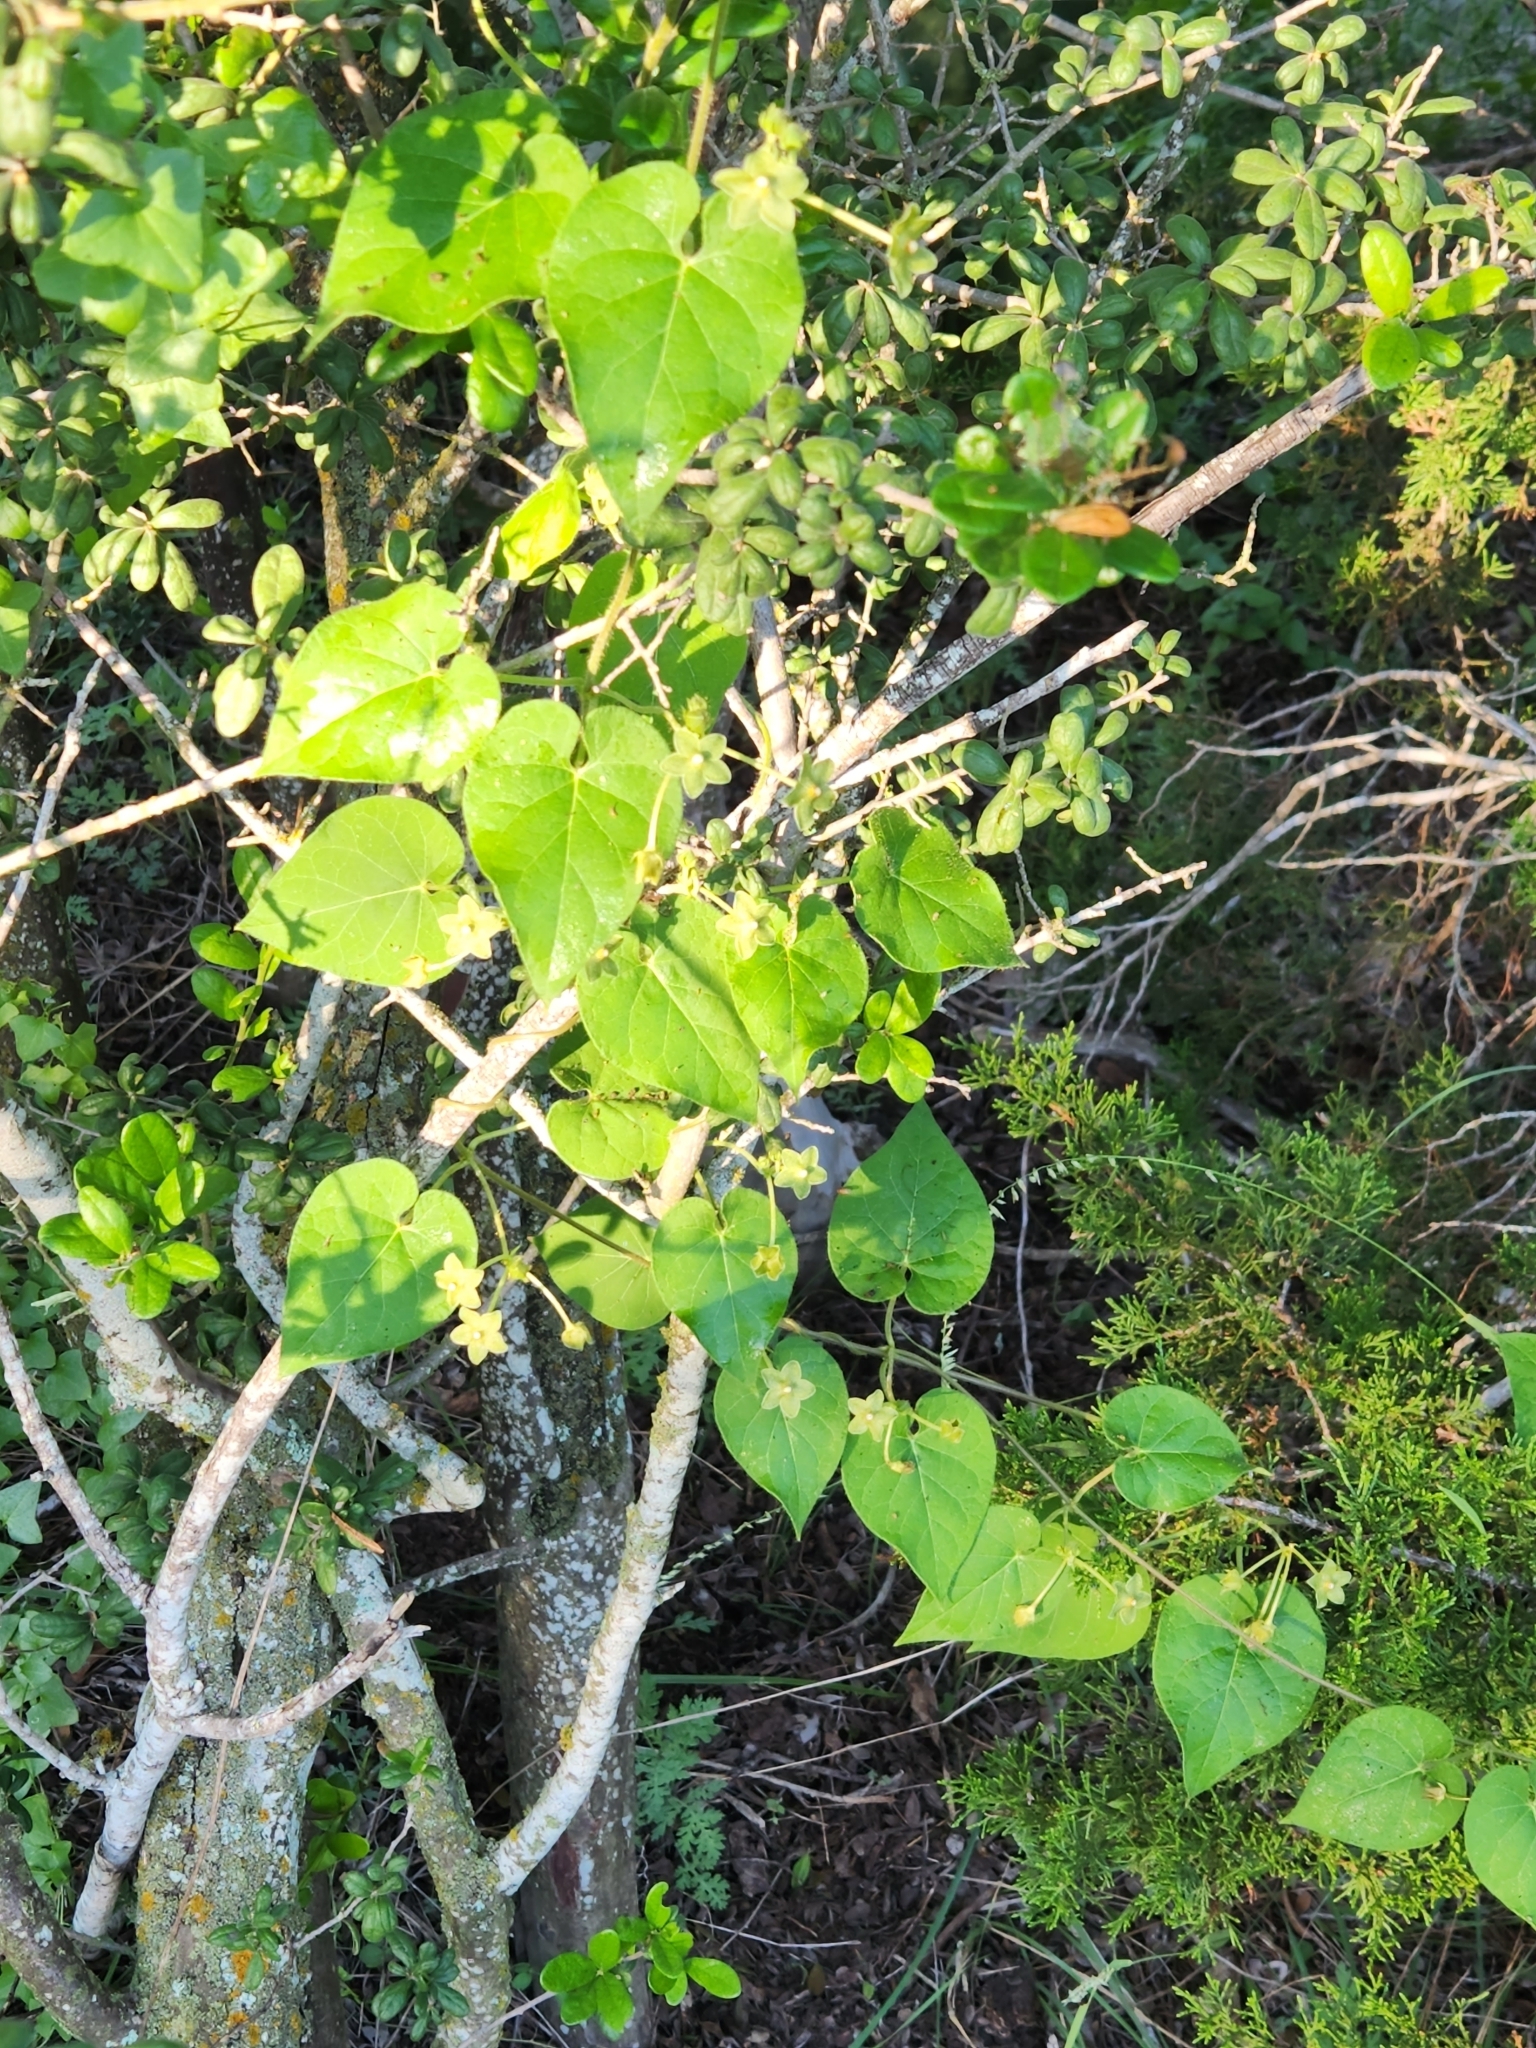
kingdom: Plantae
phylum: Tracheophyta
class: Magnoliopsida
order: Gentianales
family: Apocynaceae
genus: Dictyanthus
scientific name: Dictyanthus reticulatus
